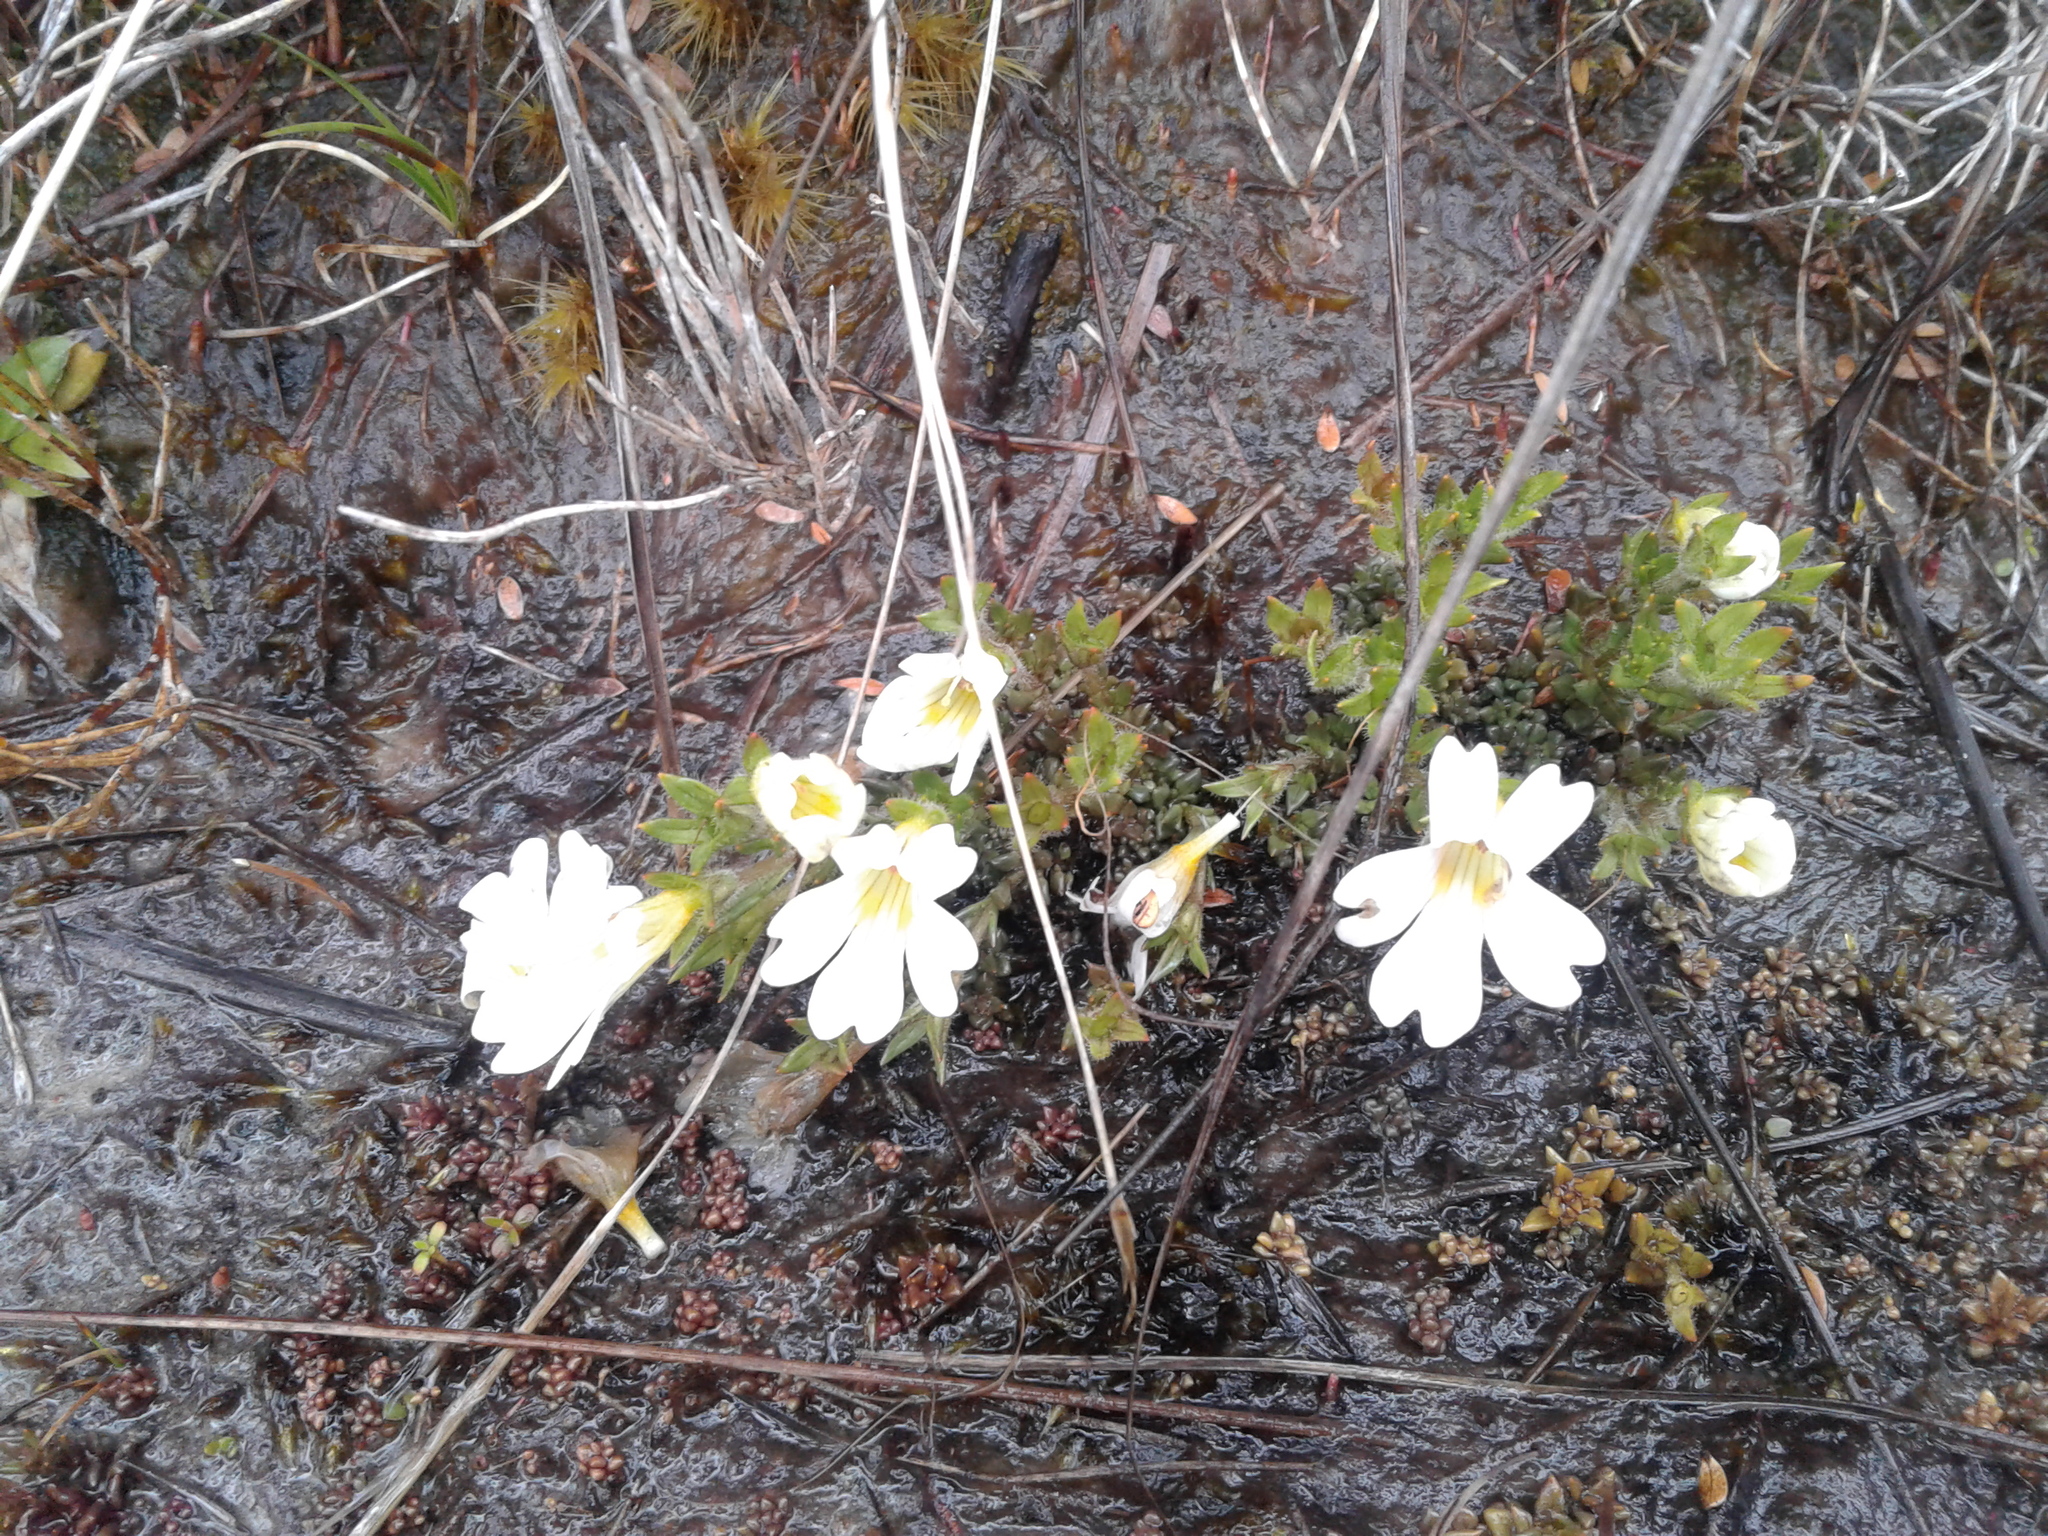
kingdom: Plantae
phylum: Tracheophyta
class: Magnoliopsida
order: Lamiales
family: Orobanchaceae
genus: Euphrasia
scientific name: Euphrasia townsonii
